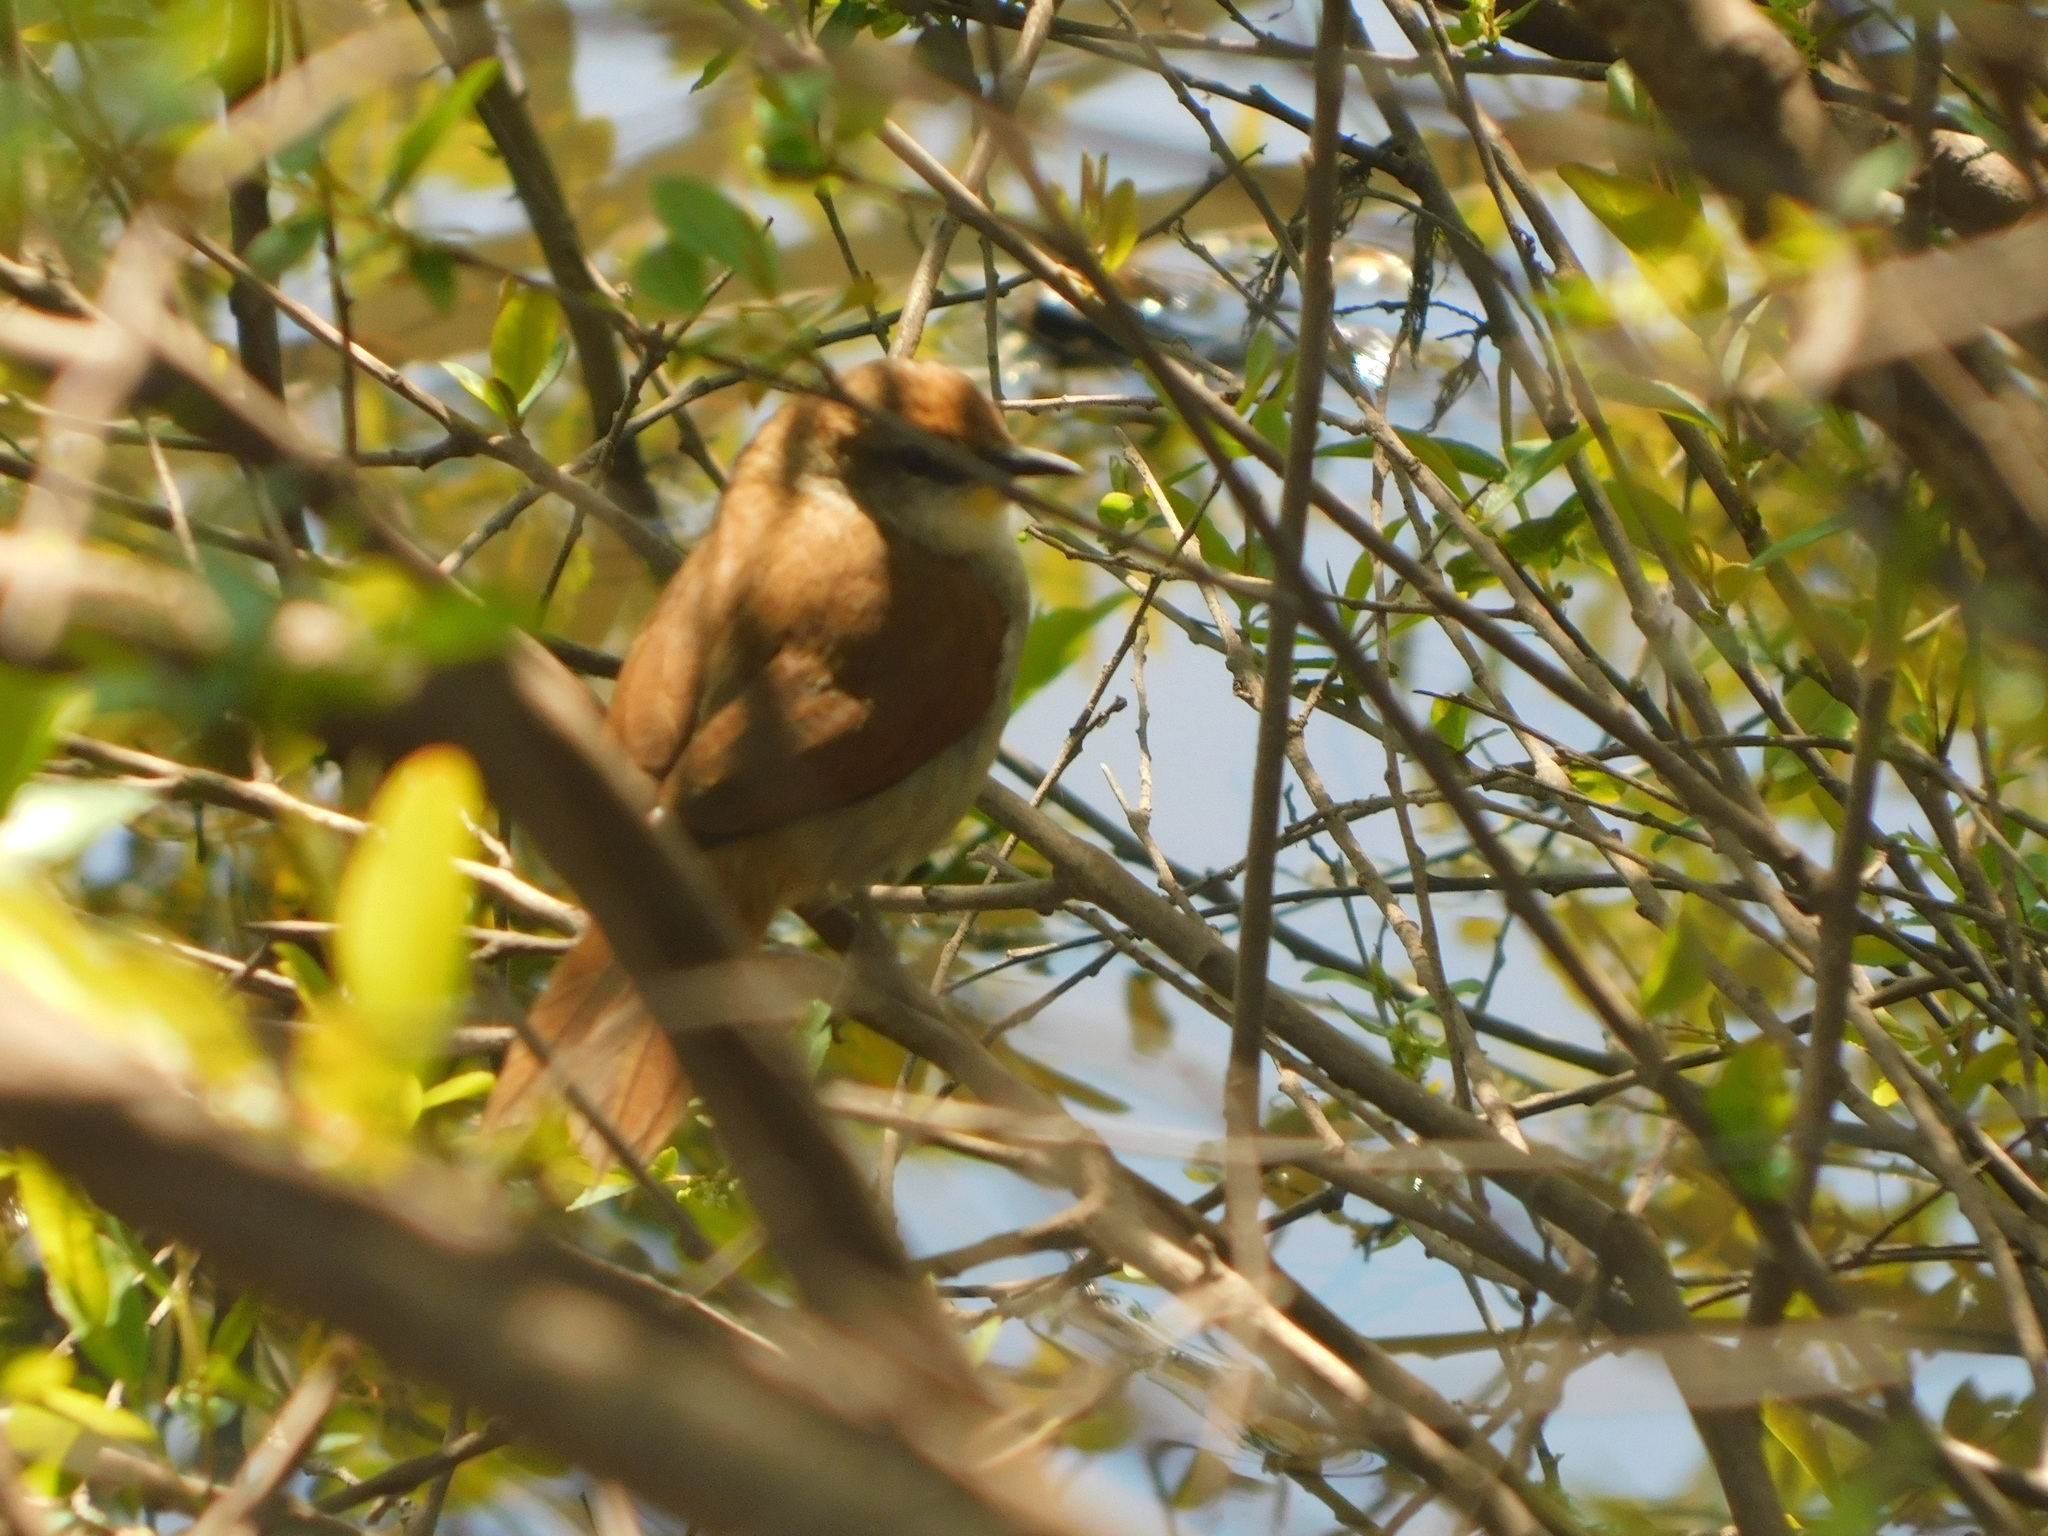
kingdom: Animalia
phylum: Chordata
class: Aves
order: Passeriformes
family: Furnariidae
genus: Certhiaxis
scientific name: Certhiaxis cinnamomeus
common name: Yellow-chinned spinetail
